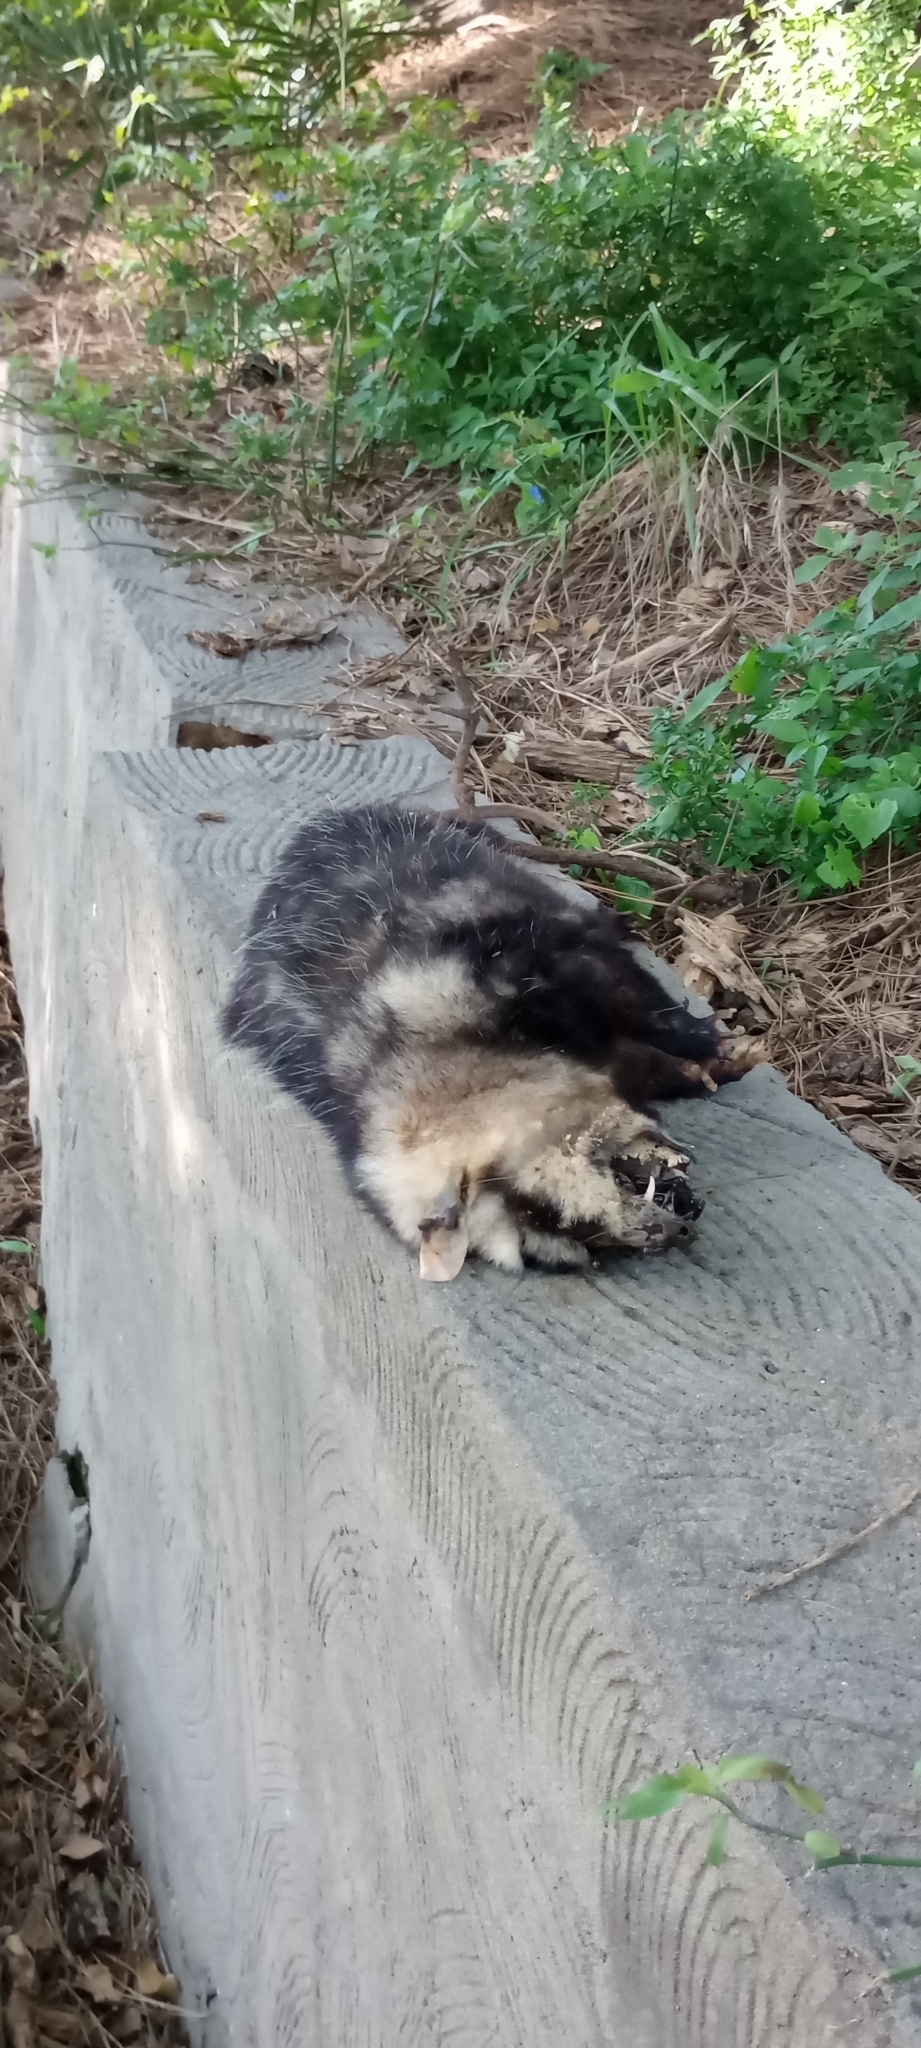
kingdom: Animalia
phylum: Chordata
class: Mammalia
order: Didelphimorphia
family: Didelphidae
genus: Didelphis
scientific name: Didelphis albiventris
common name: White-eared opossum
